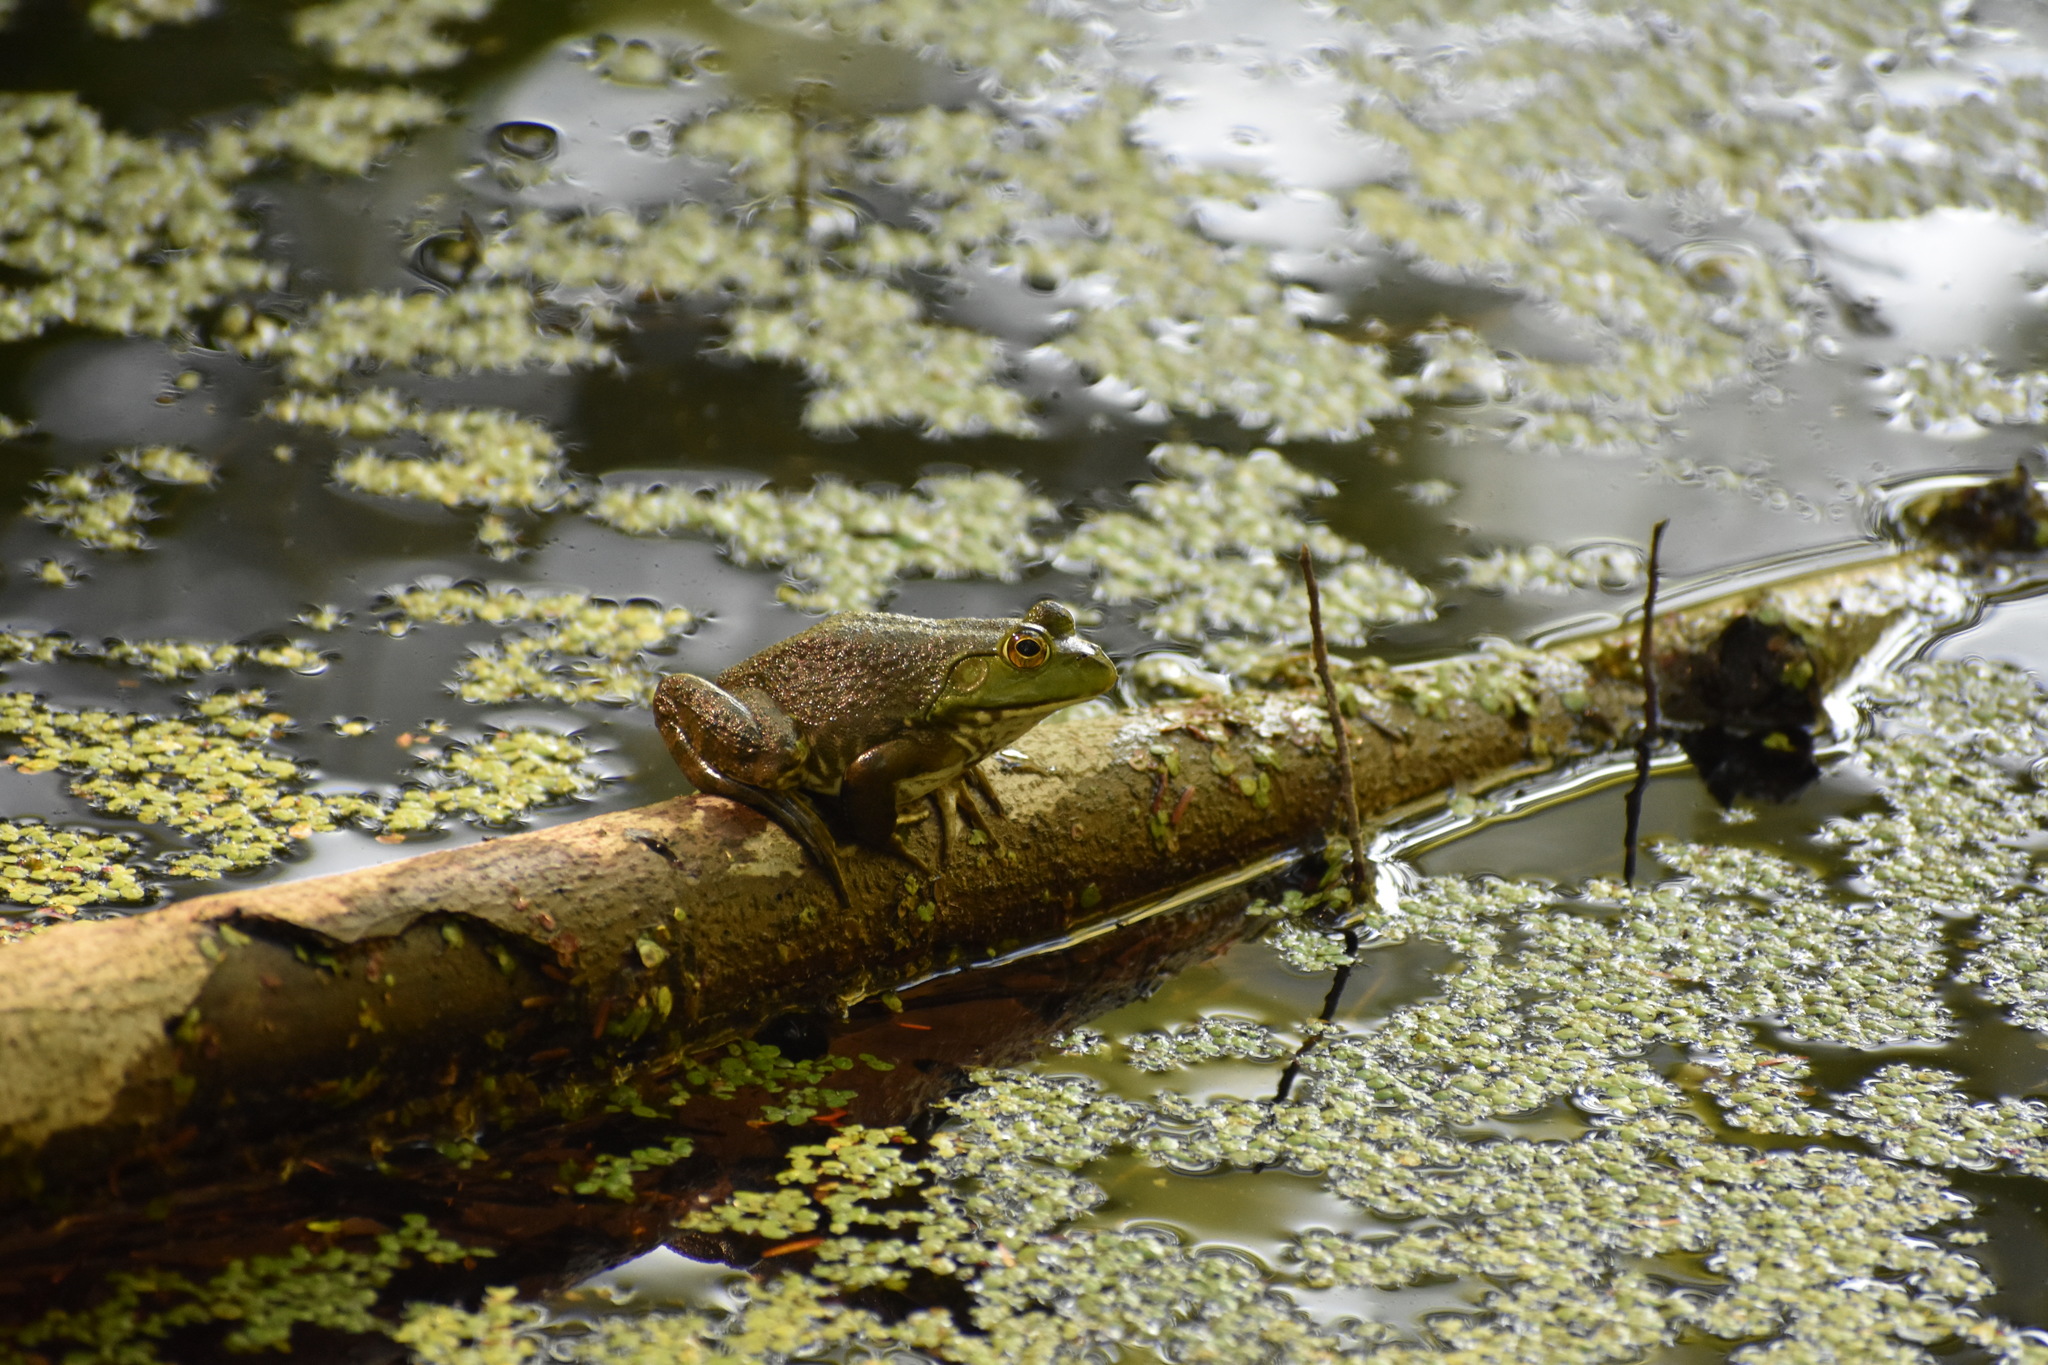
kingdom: Animalia
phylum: Chordata
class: Amphibia
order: Anura
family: Ranidae
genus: Lithobates
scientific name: Lithobates catesbeianus
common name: American bullfrog
